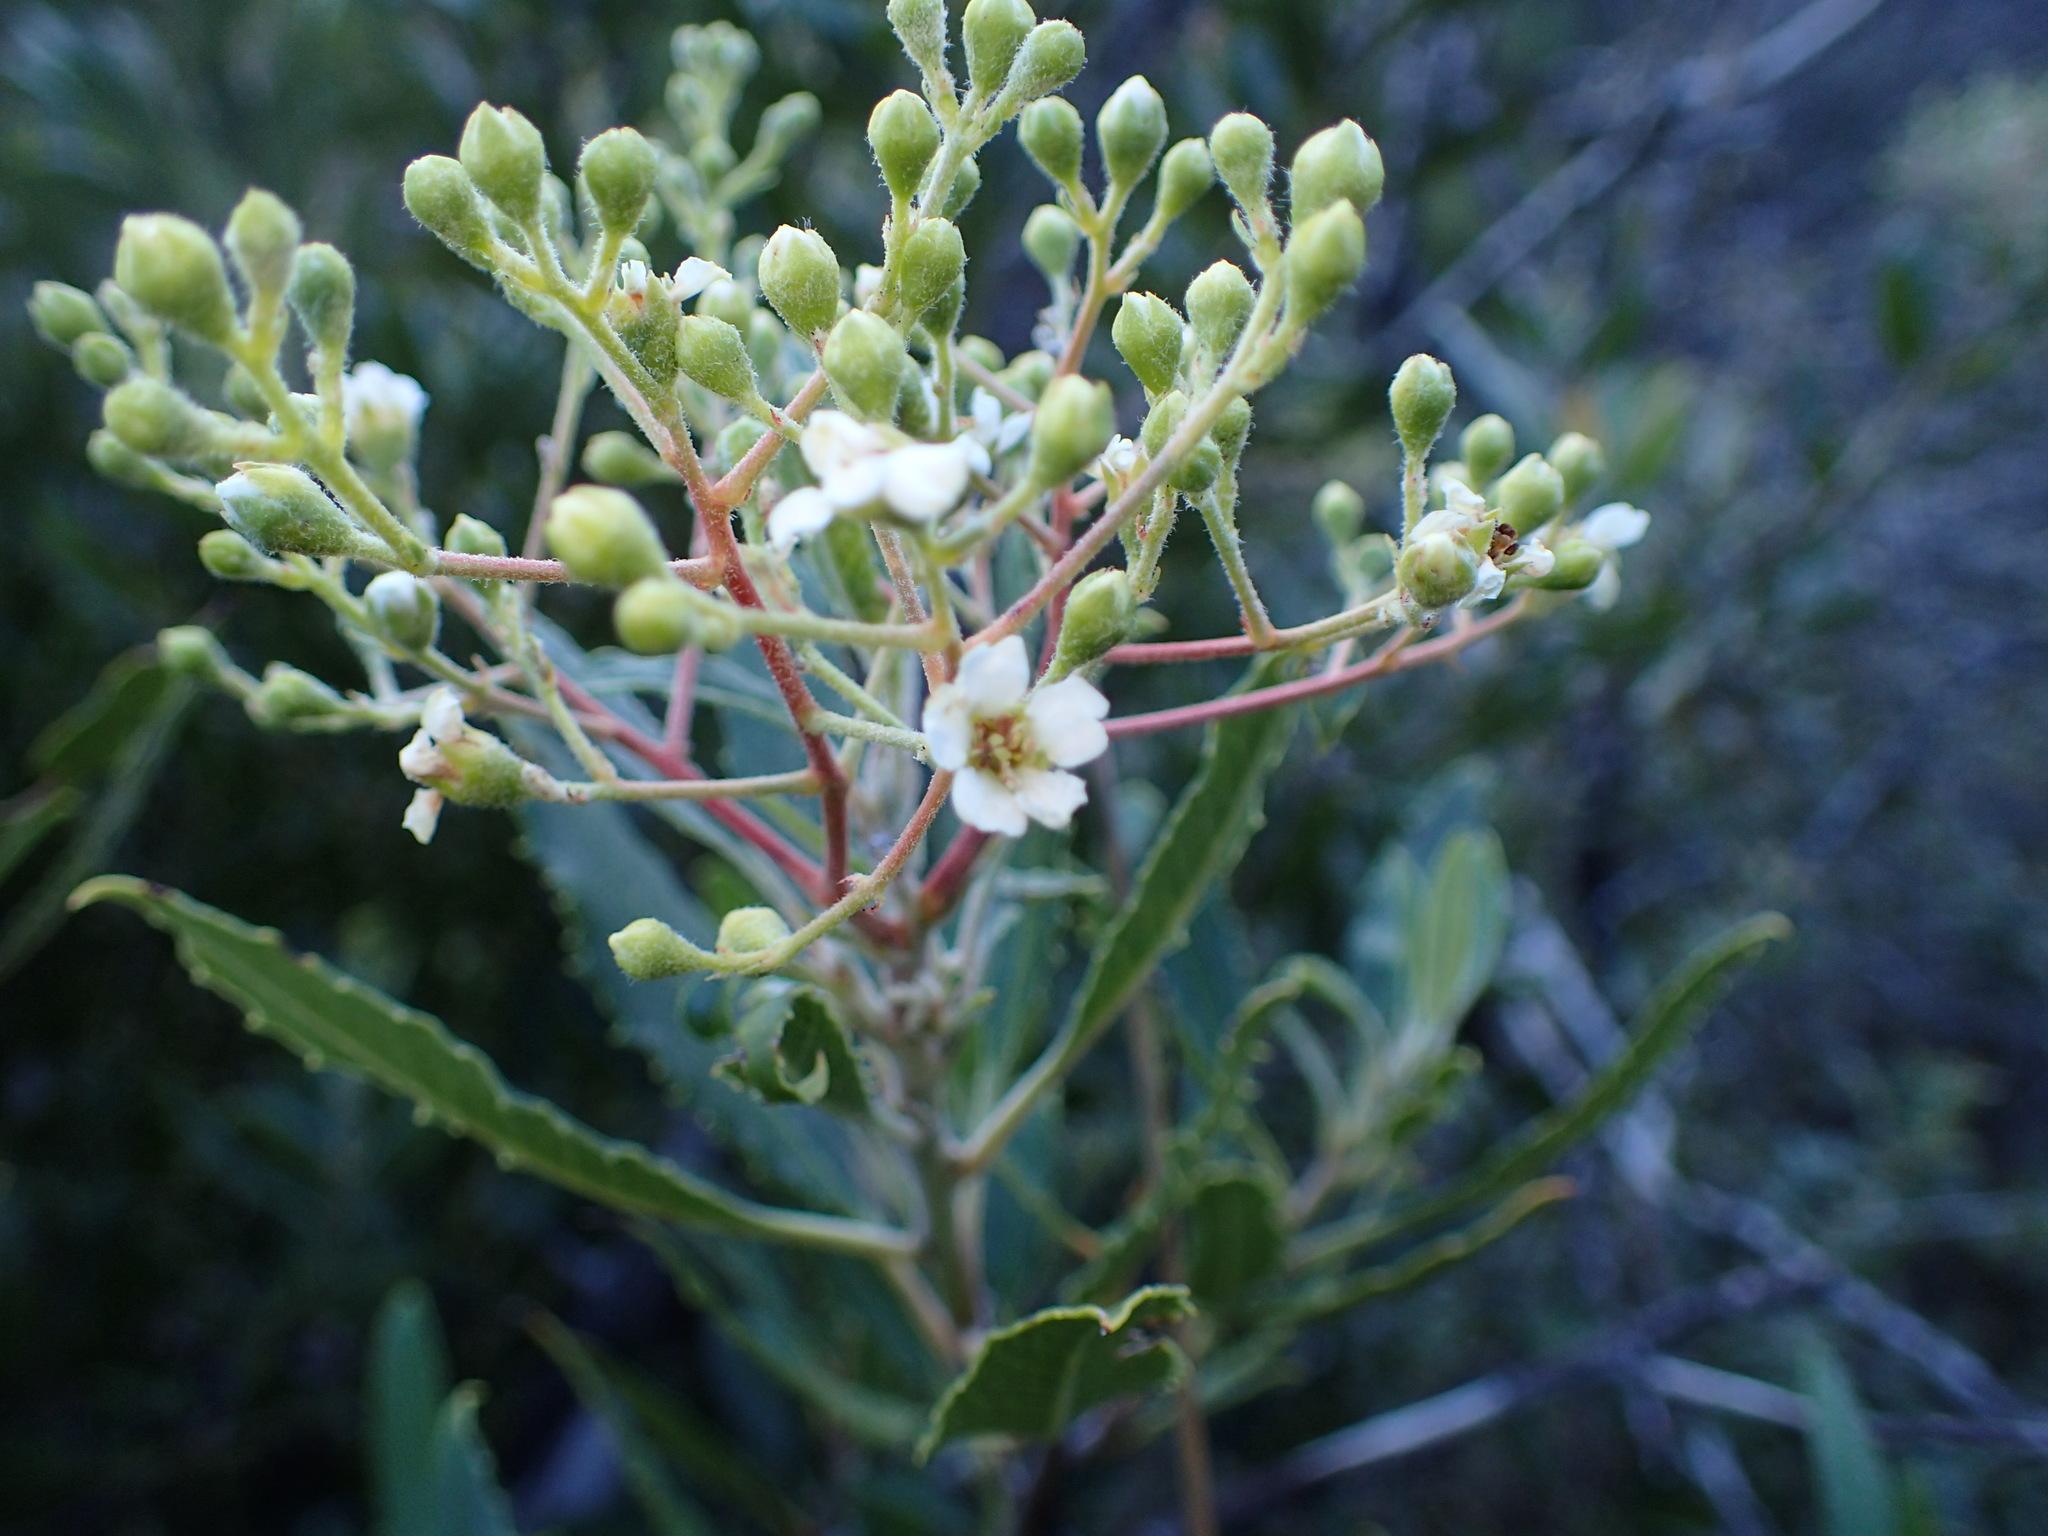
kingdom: Plantae
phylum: Tracheophyta
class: Magnoliopsida
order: Rosales
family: Rosaceae
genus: Heteromeles
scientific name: Heteromeles arbutifolia
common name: California-holly
